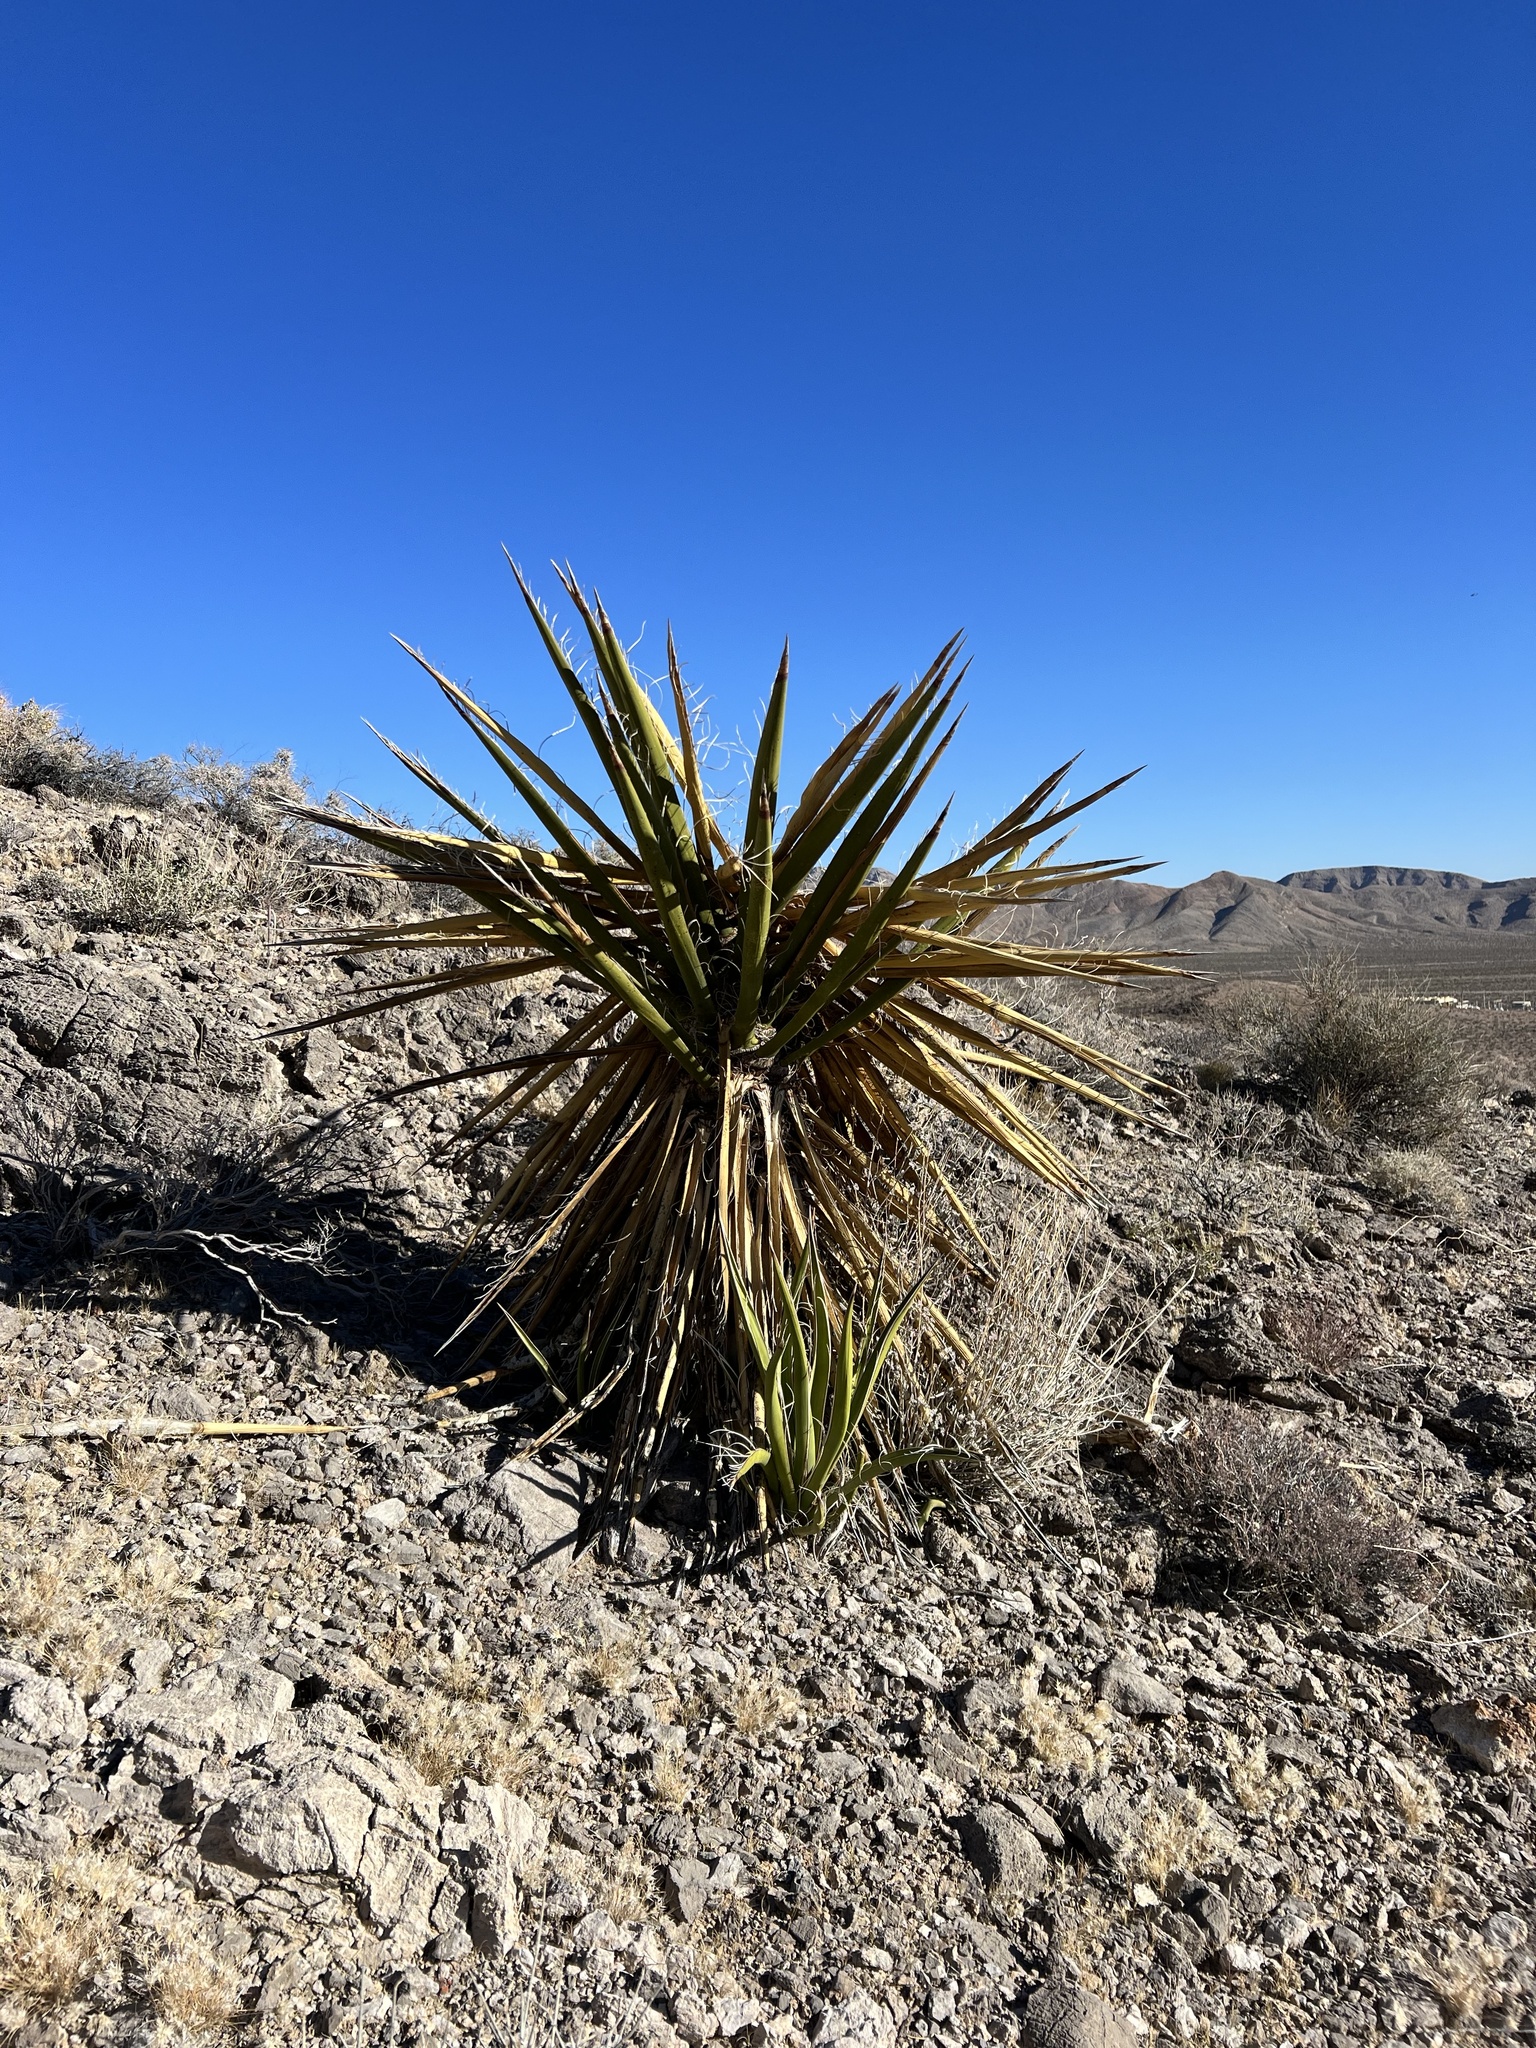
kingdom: Plantae
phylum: Tracheophyta
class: Liliopsida
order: Asparagales
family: Asparagaceae
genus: Yucca
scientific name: Yucca schidigera
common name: Mojave yucca
